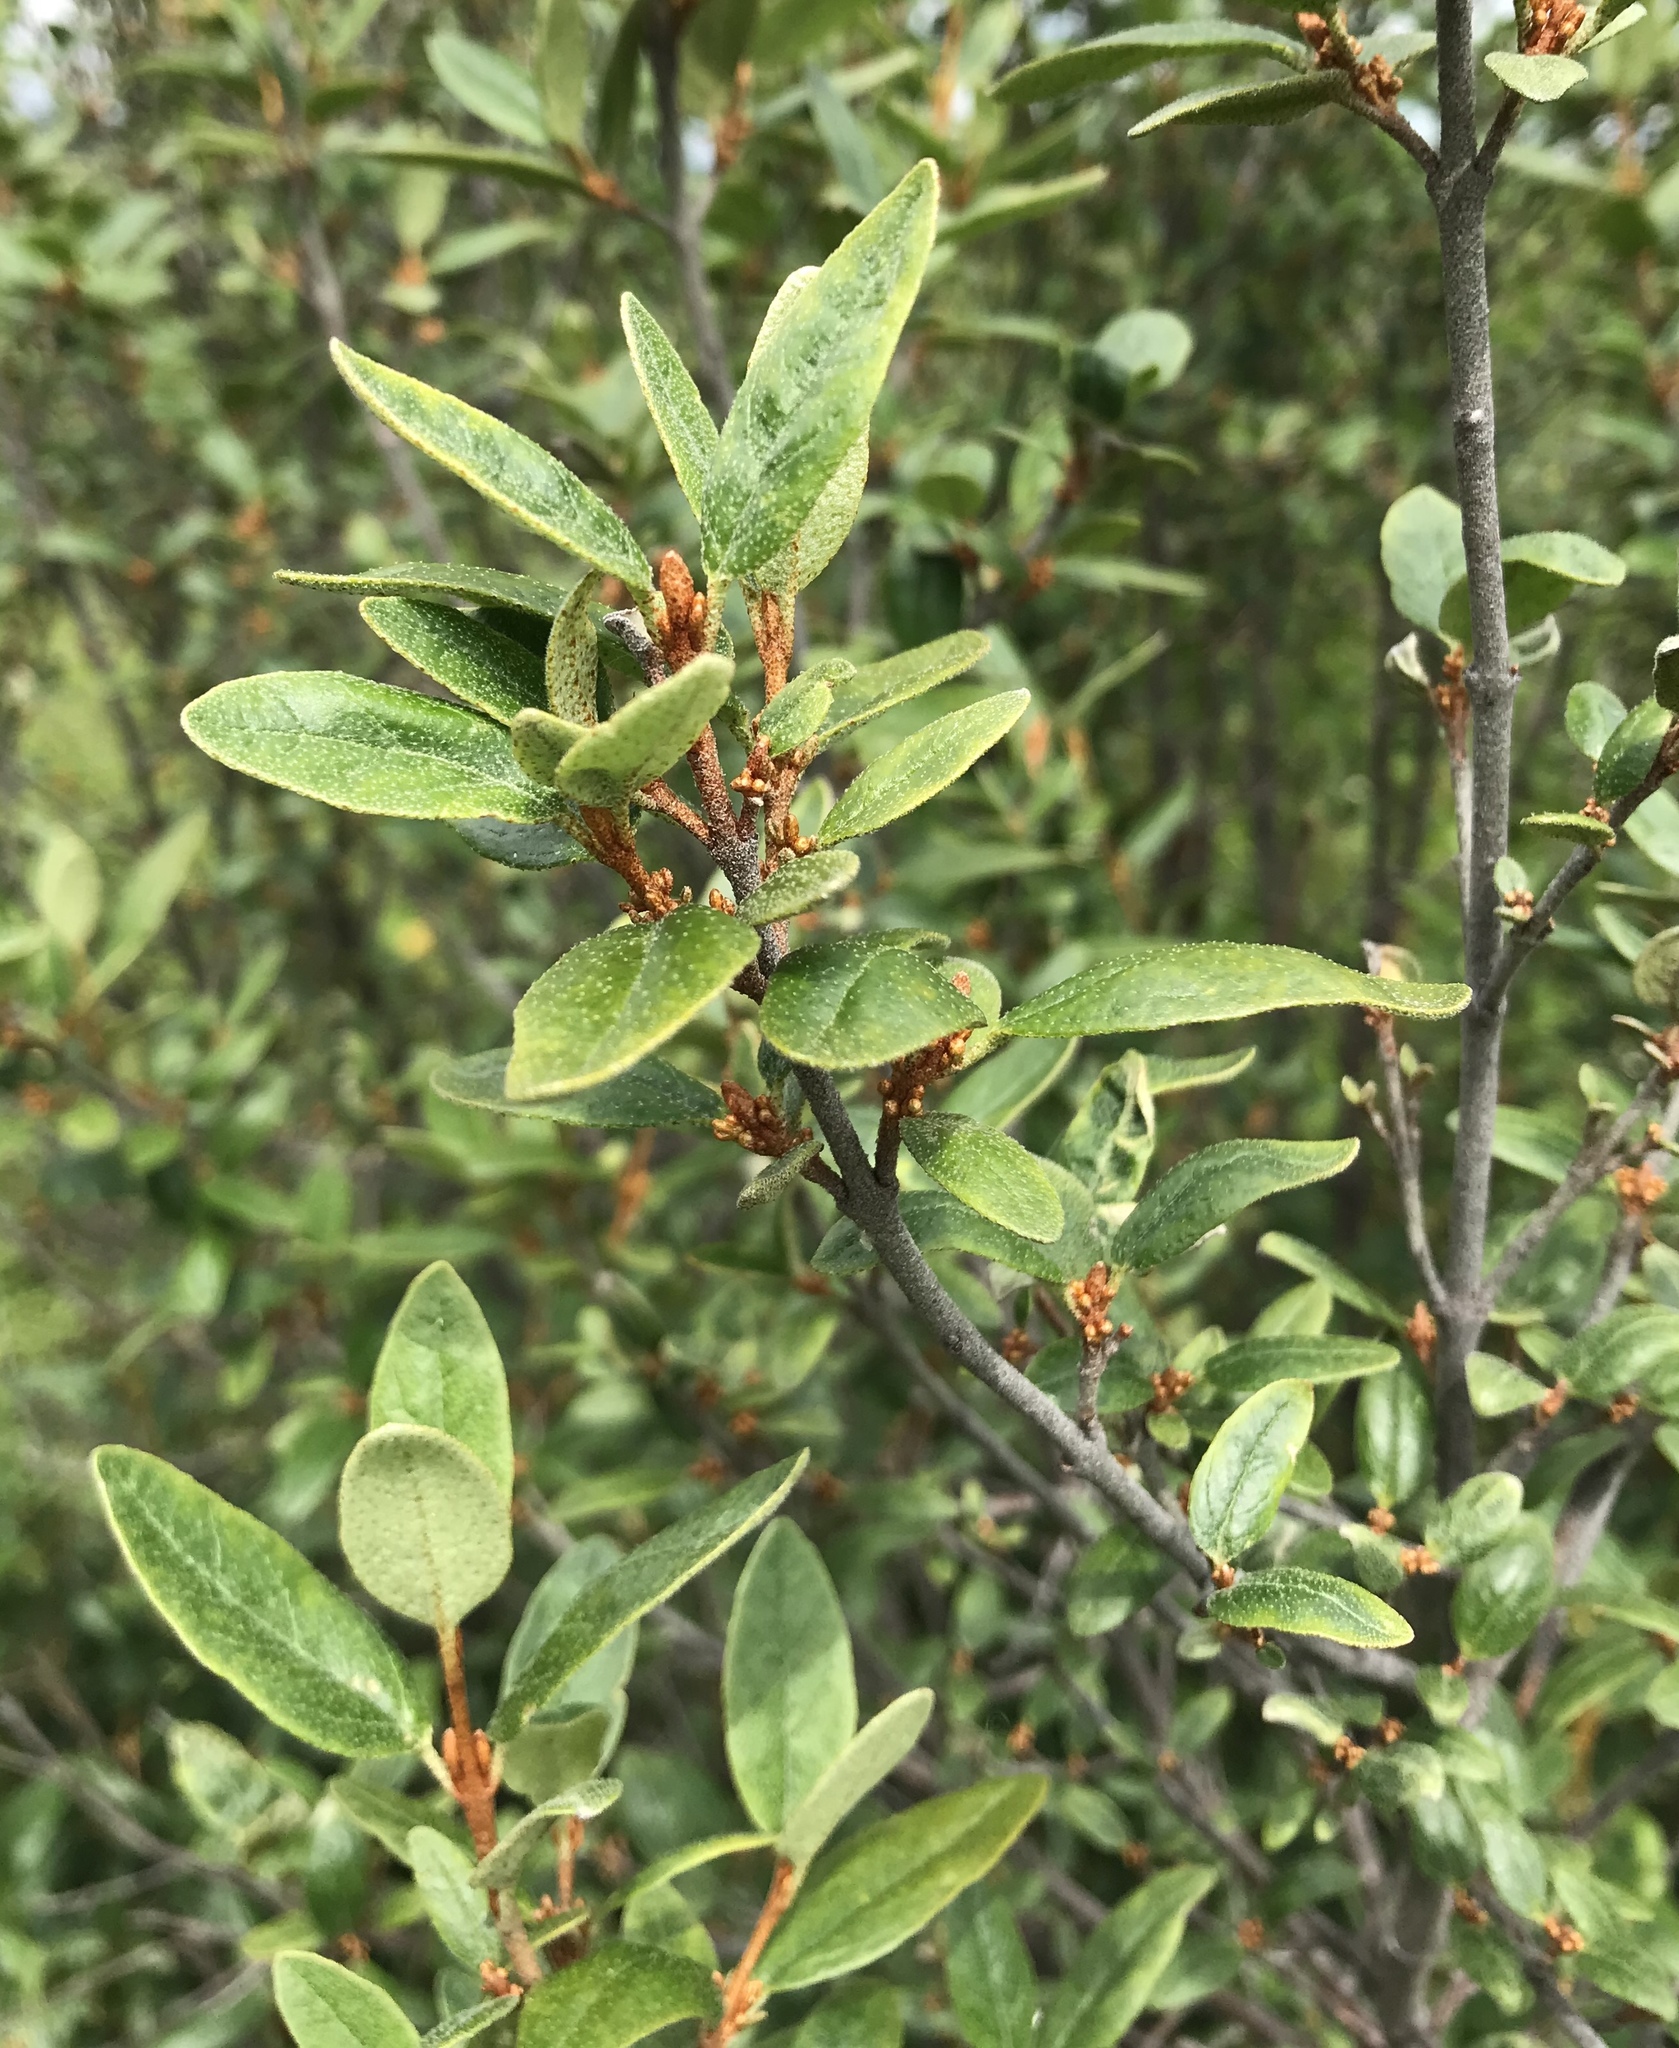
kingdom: Plantae
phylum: Tracheophyta
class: Magnoliopsida
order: Rosales
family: Elaeagnaceae
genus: Shepherdia
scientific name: Shepherdia canadensis
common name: Soapberry
